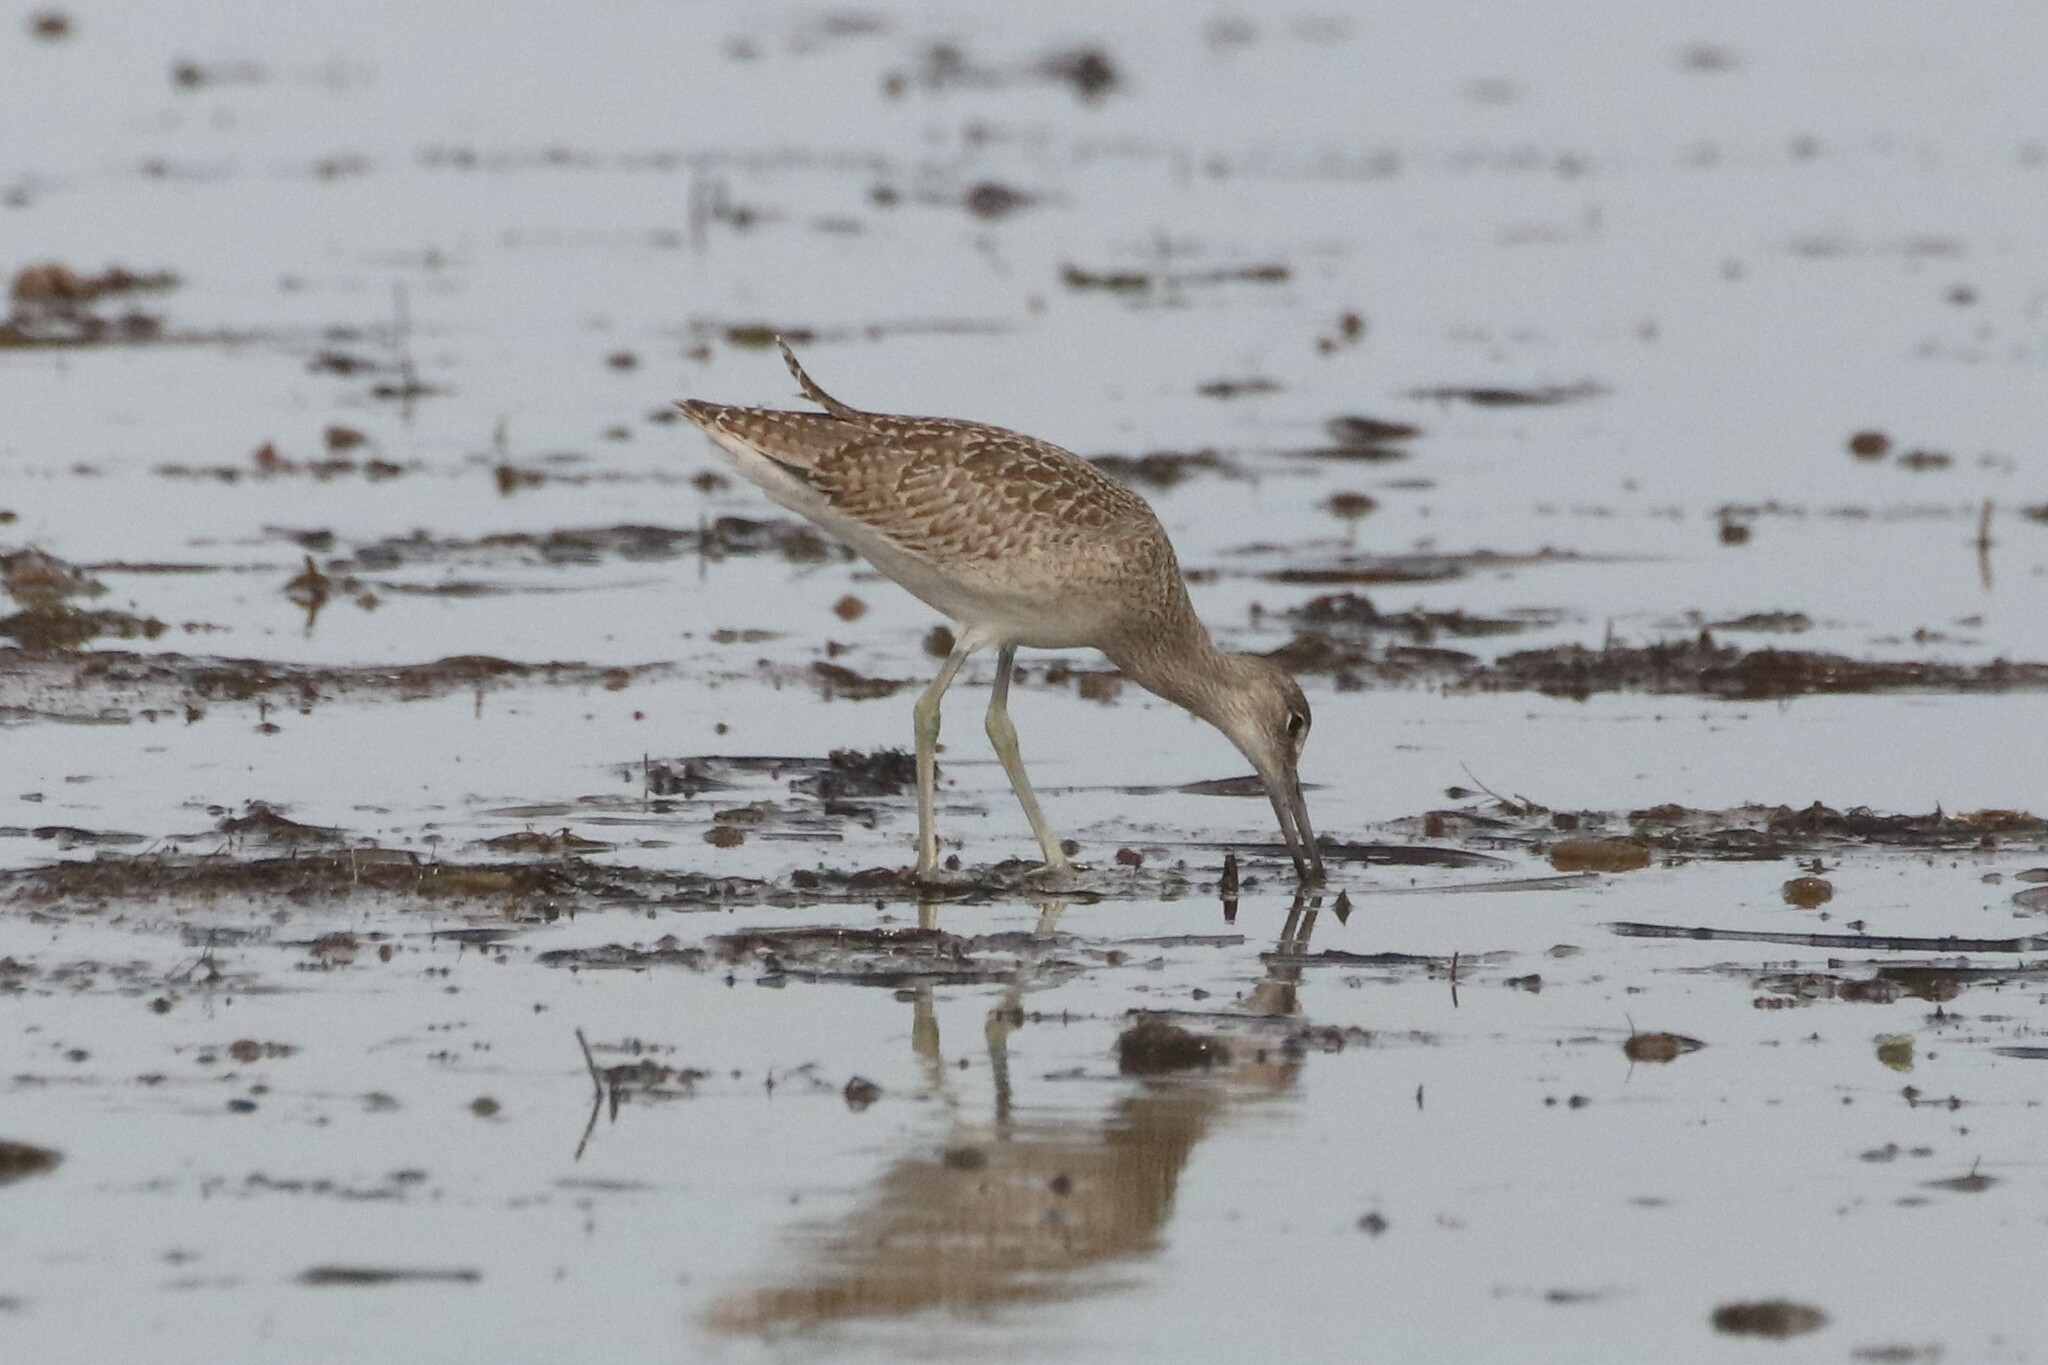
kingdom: Animalia
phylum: Chordata
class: Aves
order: Charadriiformes
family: Scolopacidae
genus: Tringa
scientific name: Tringa semipalmata
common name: Willet
